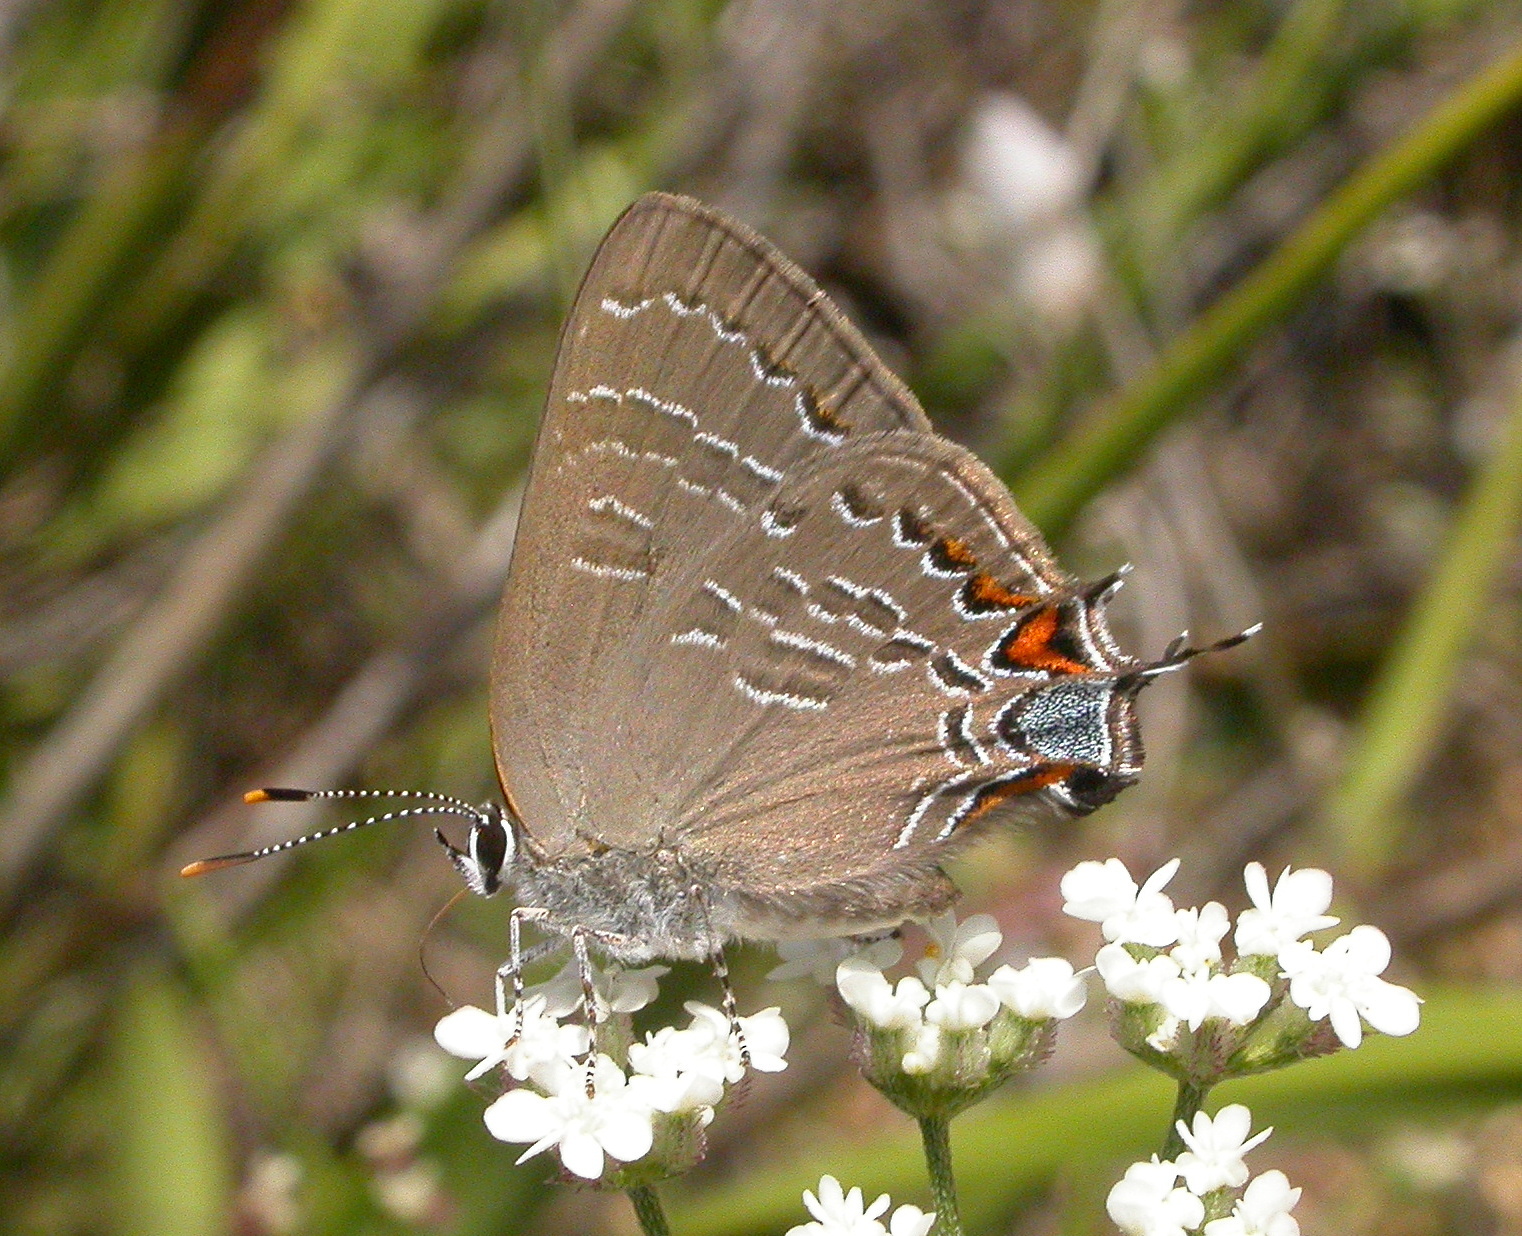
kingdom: Animalia
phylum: Arthropoda
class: Insecta
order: Lepidoptera
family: Lycaenidae
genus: Satyrium
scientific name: Satyrium calanus
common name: Banded hairstreak
